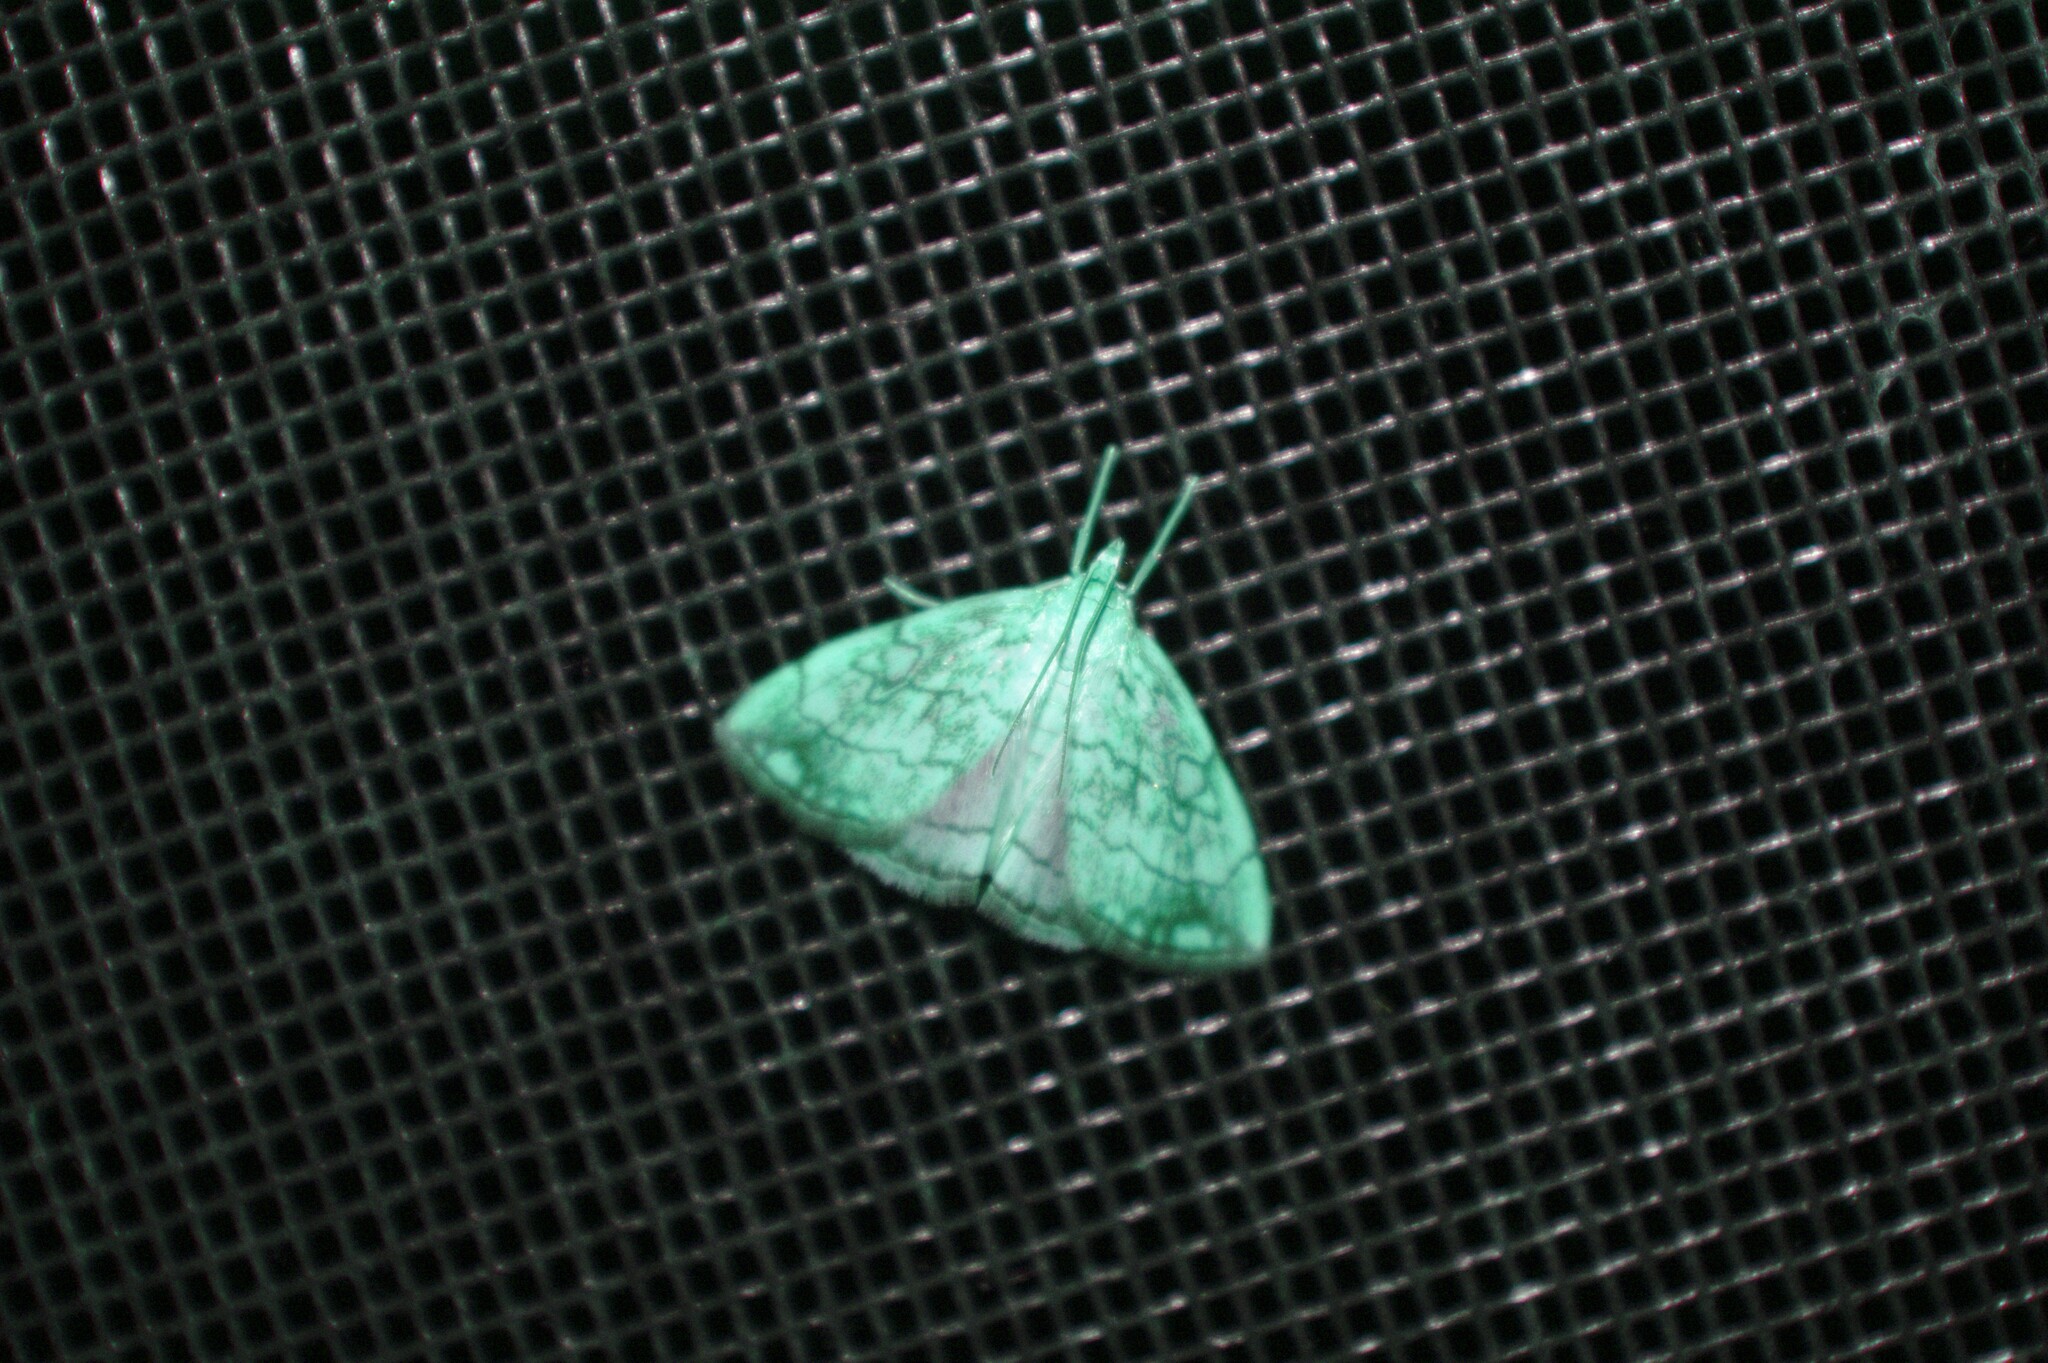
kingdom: Animalia
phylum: Arthropoda
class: Insecta
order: Lepidoptera
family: Crambidae
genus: Evergestis
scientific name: Evergestis pallidata
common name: Chequered pearl
